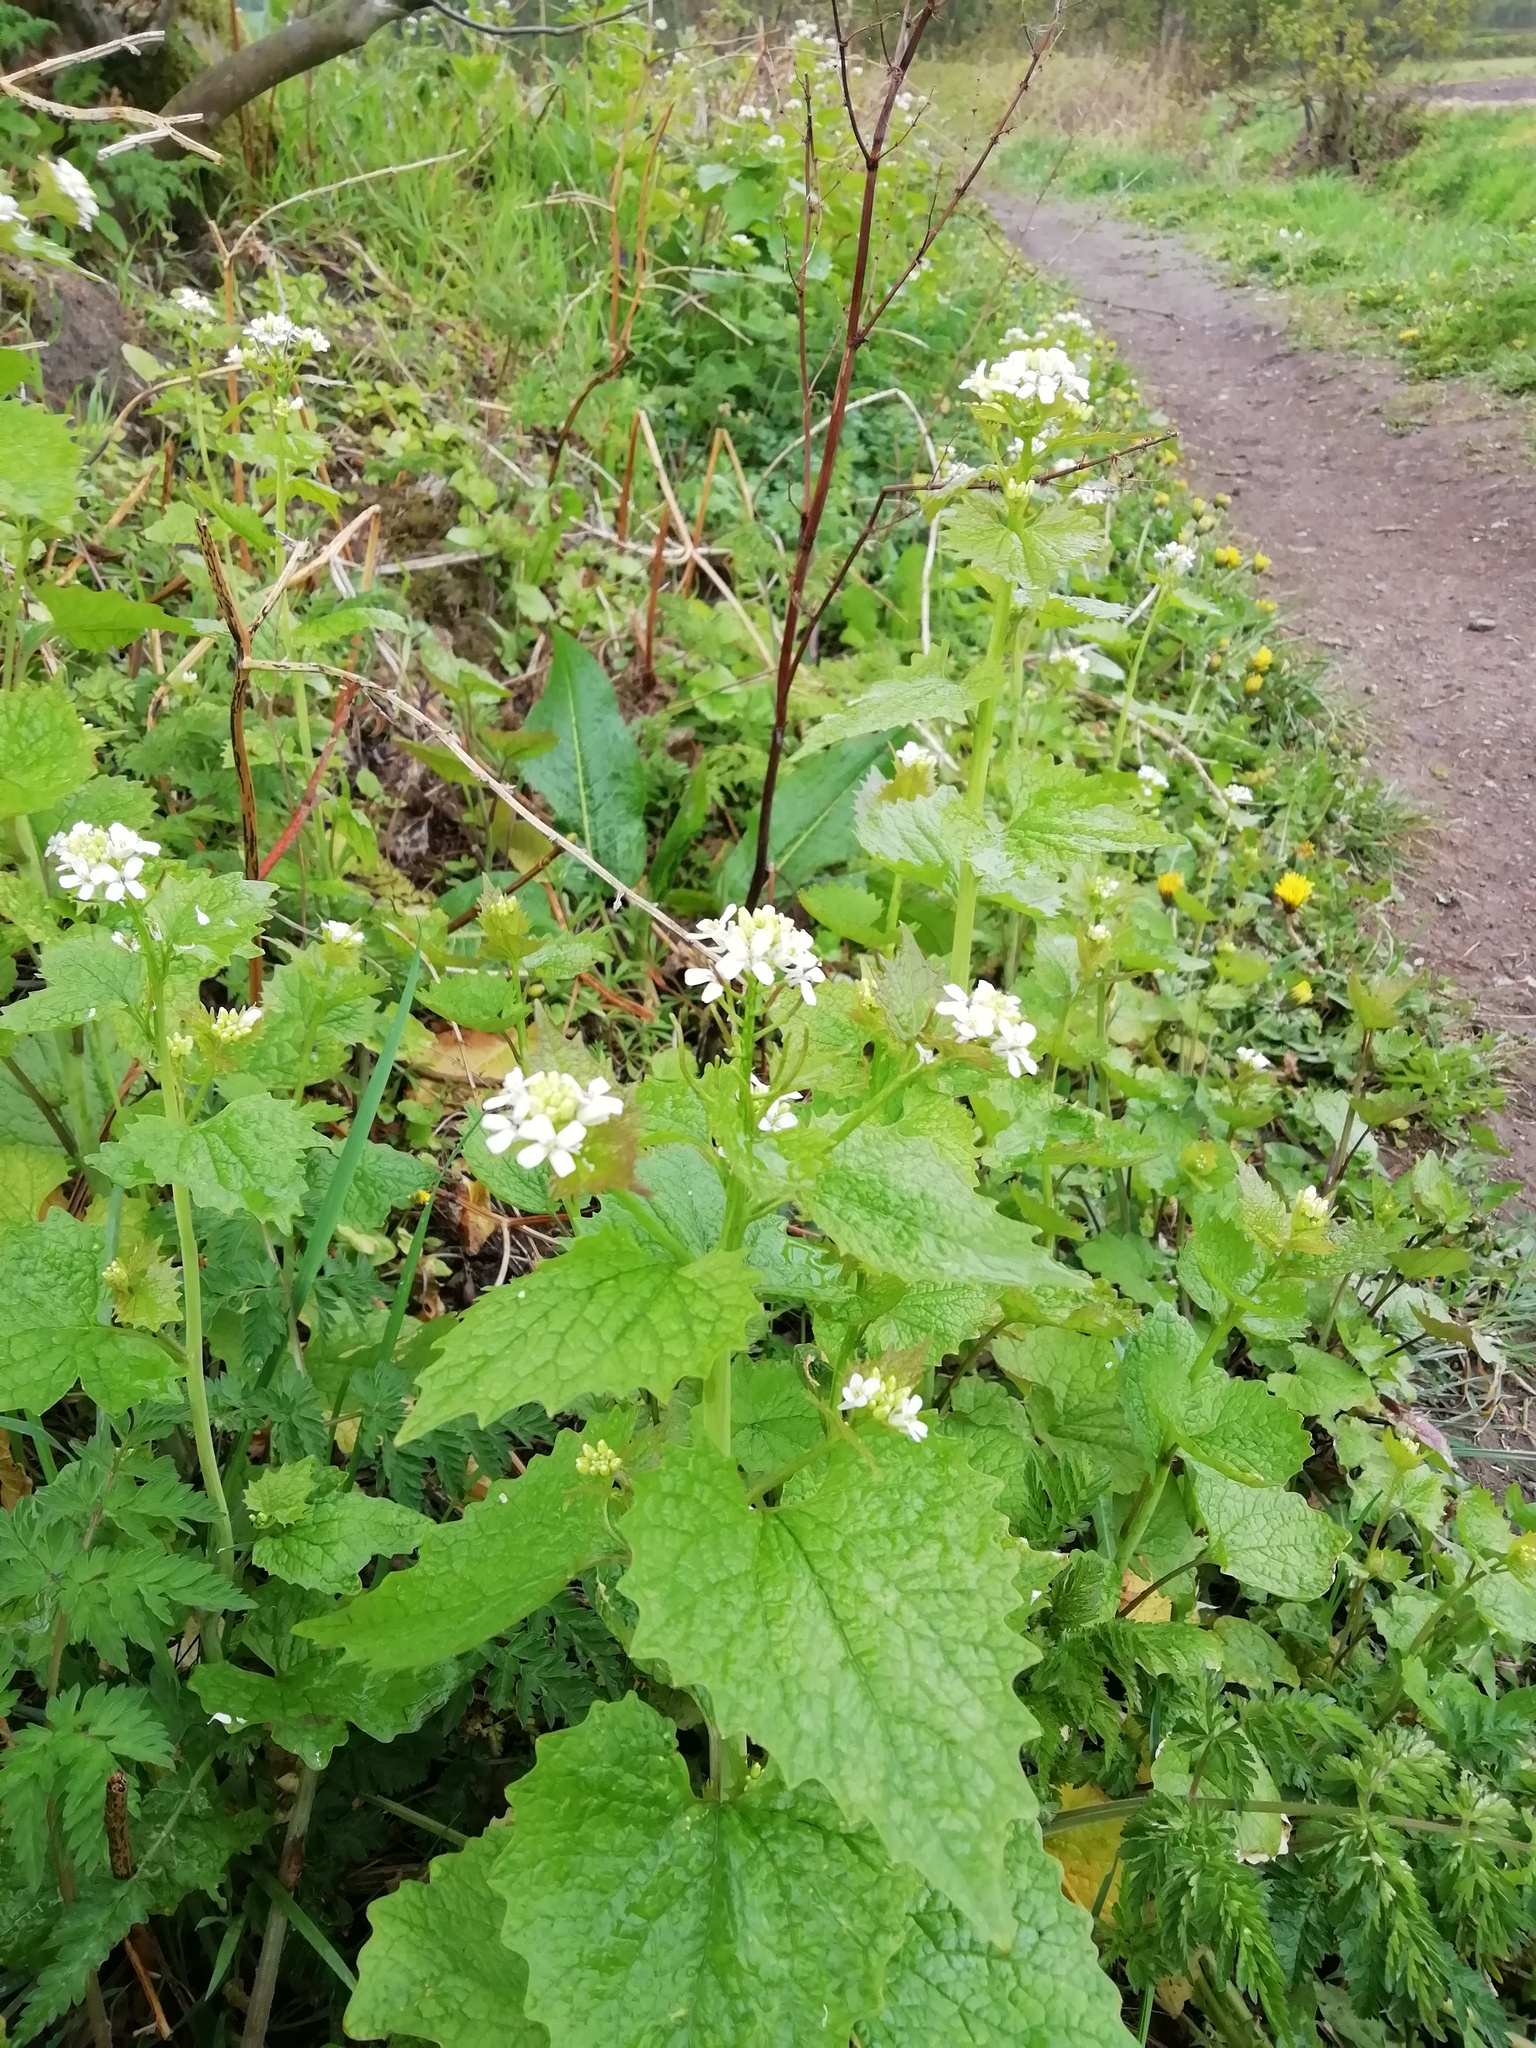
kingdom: Plantae
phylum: Tracheophyta
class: Magnoliopsida
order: Brassicales
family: Brassicaceae
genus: Alliaria
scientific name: Alliaria petiolata
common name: Garlic mustard
